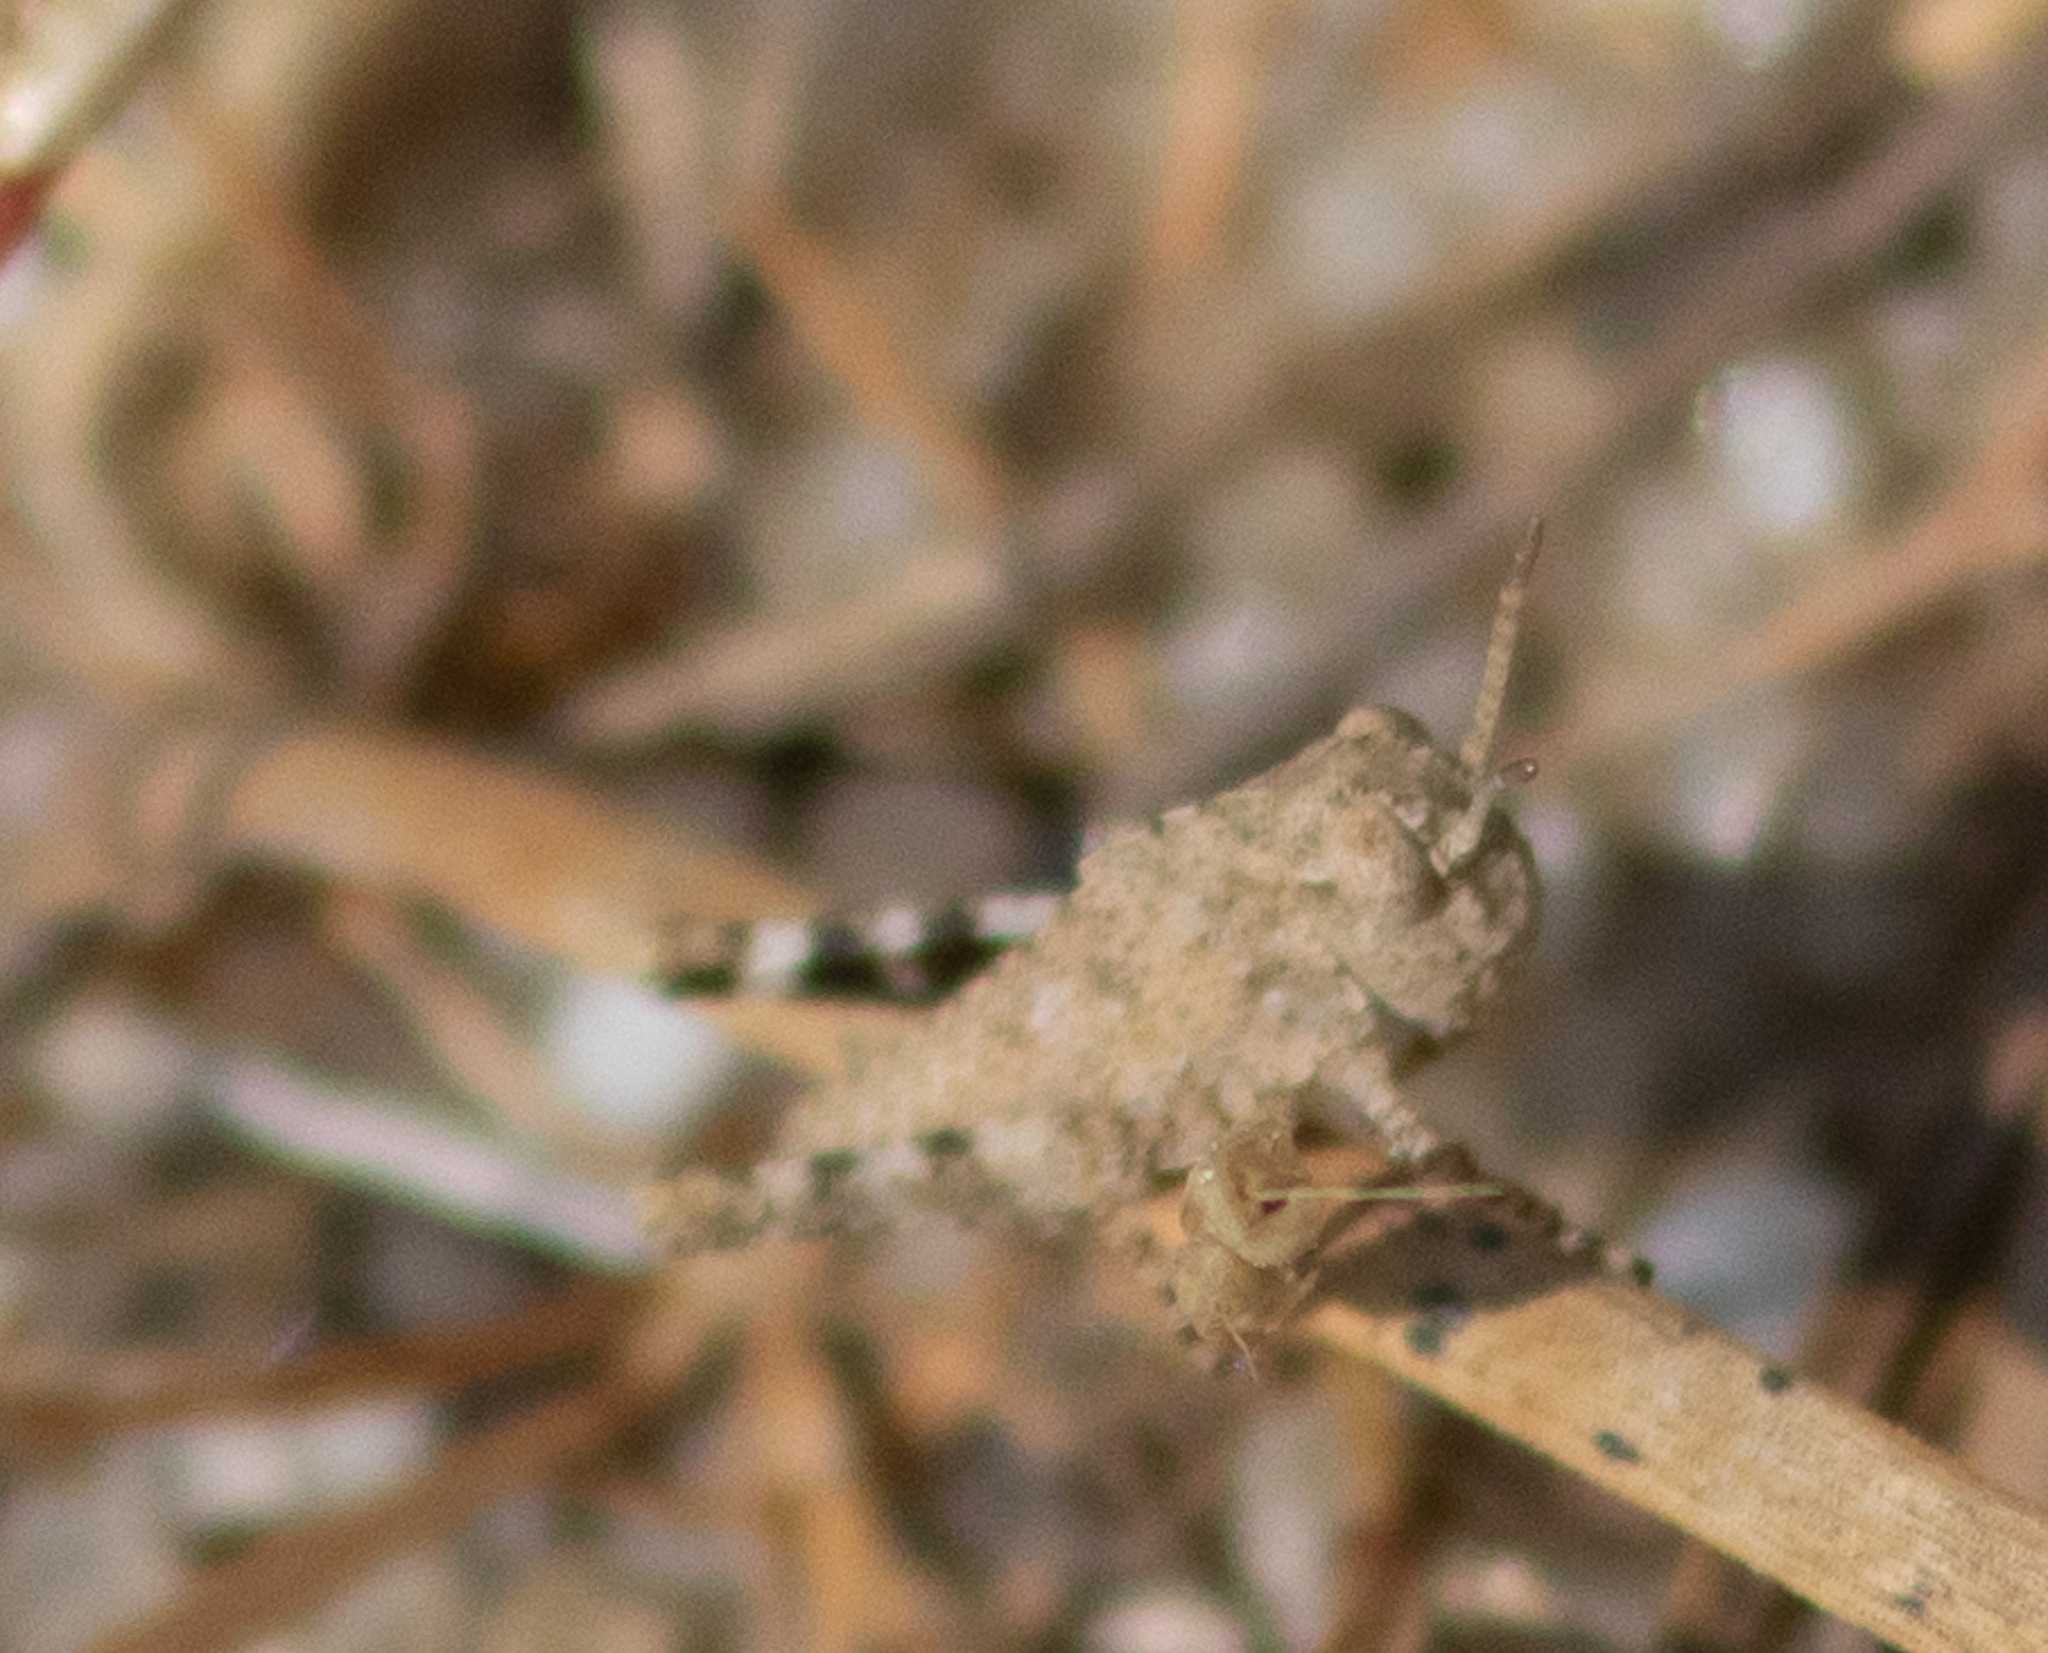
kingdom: Animalia
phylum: Arthropoda
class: Insecta
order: Orthoptera
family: Acrididae
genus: Dissosteira
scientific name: Dissosteira carolina
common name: Carolina grasshopper
